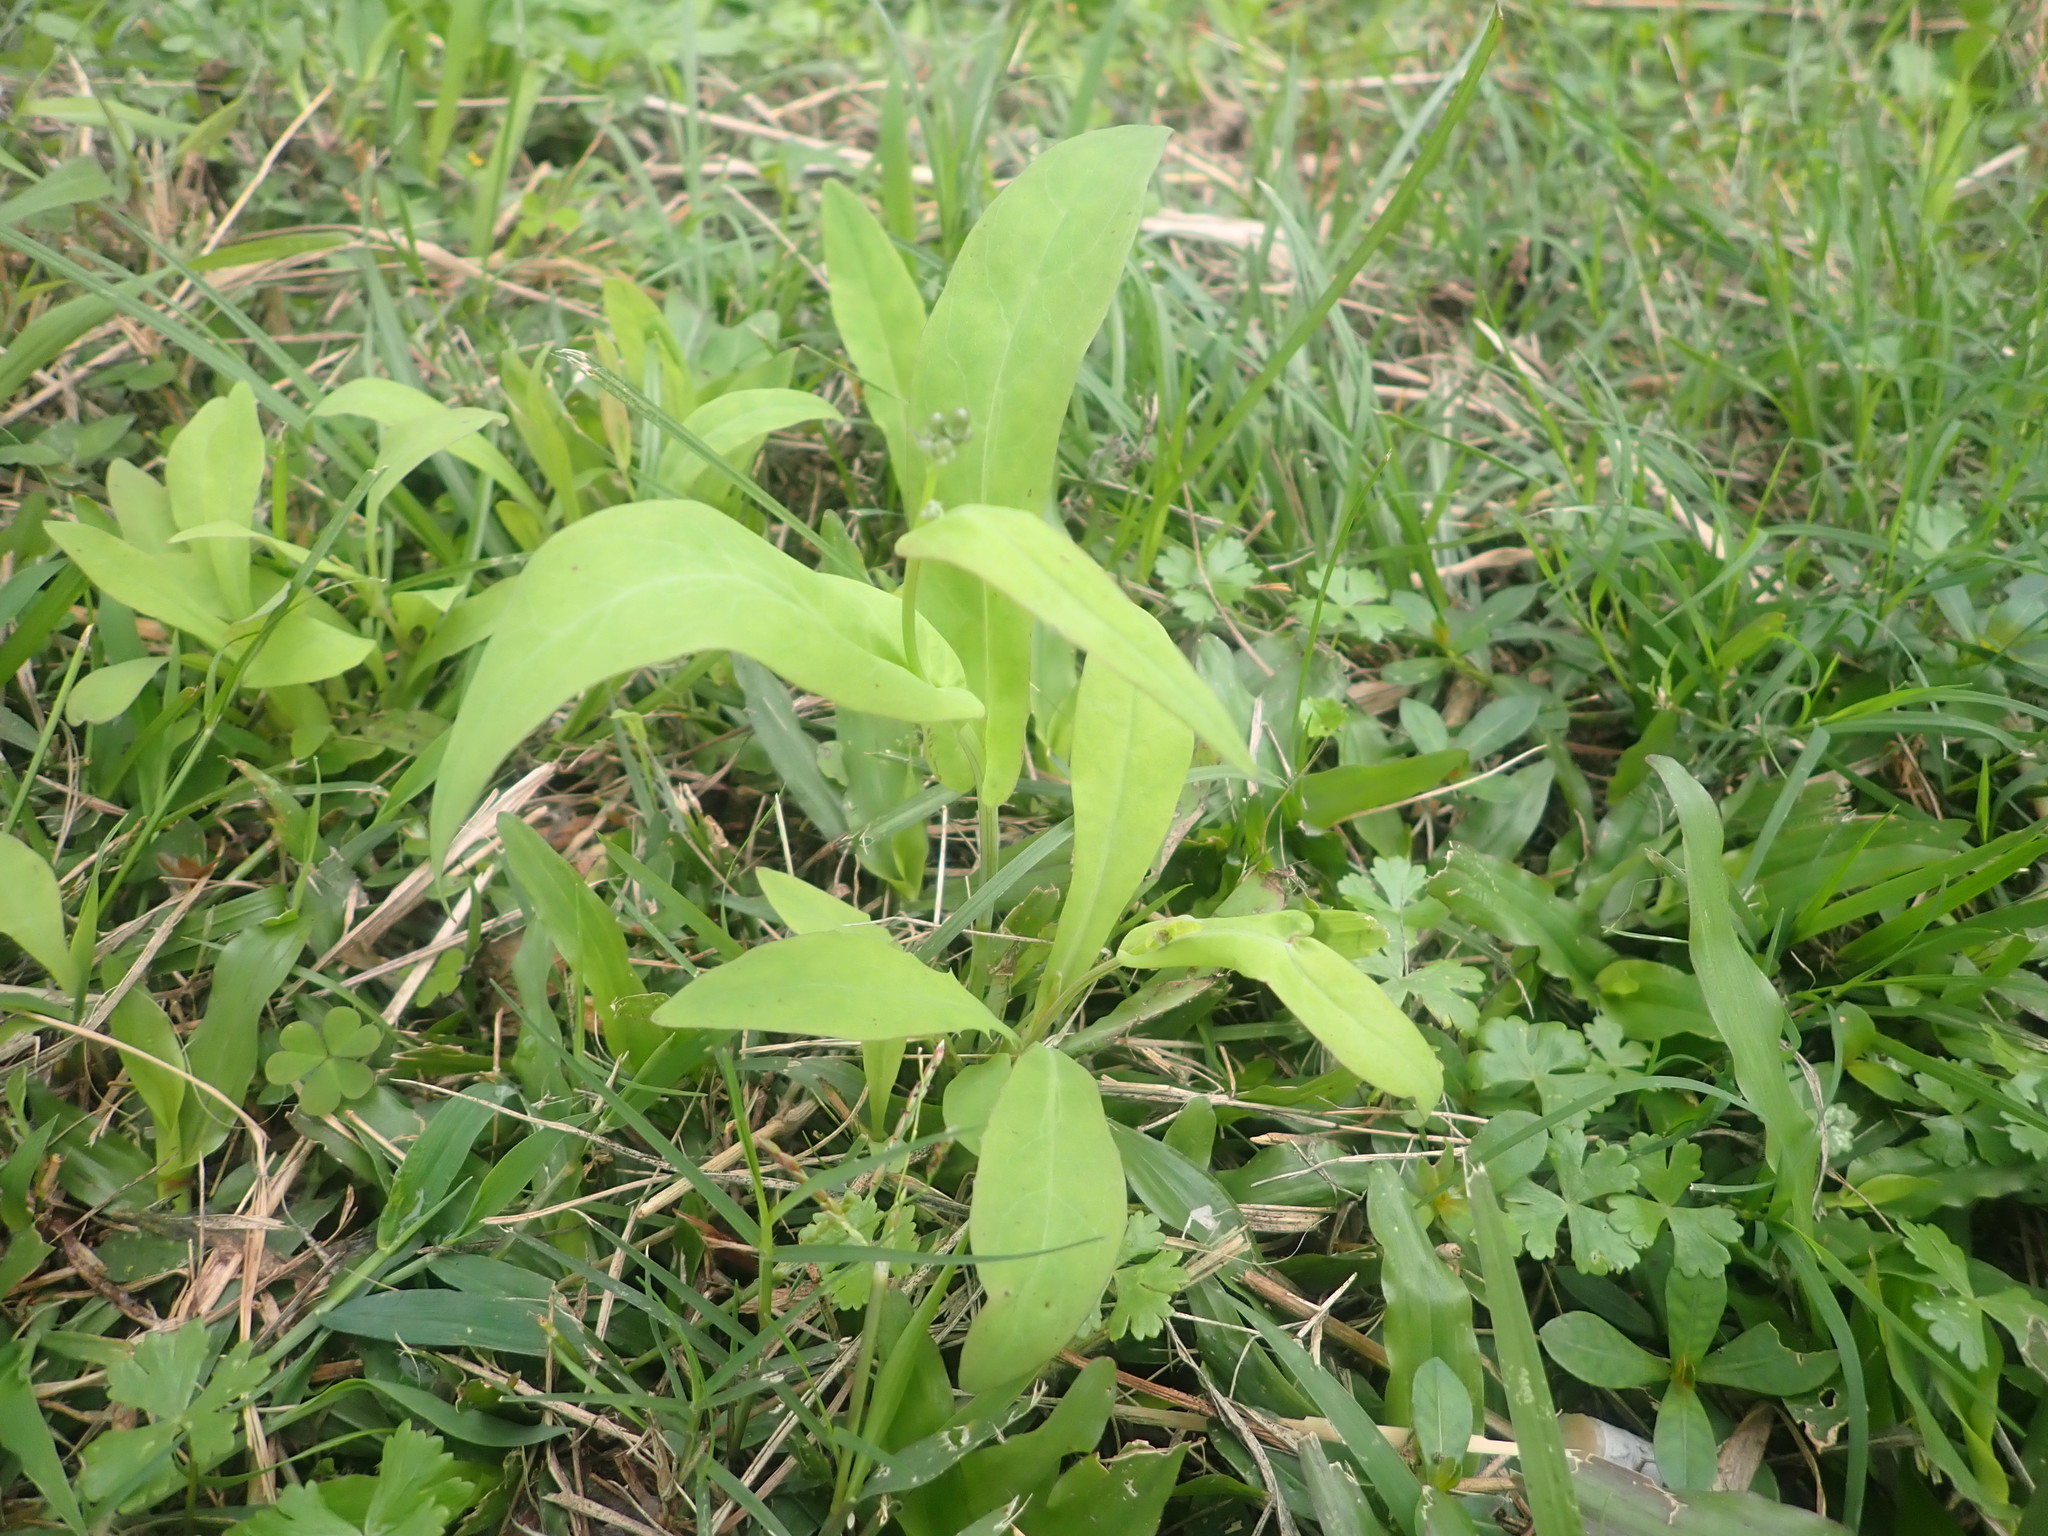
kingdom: Plantae
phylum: Tracheophyta
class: Magnoliopsida
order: Asterales
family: Asteraceae
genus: Ixeris
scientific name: Ixeris chinensis
